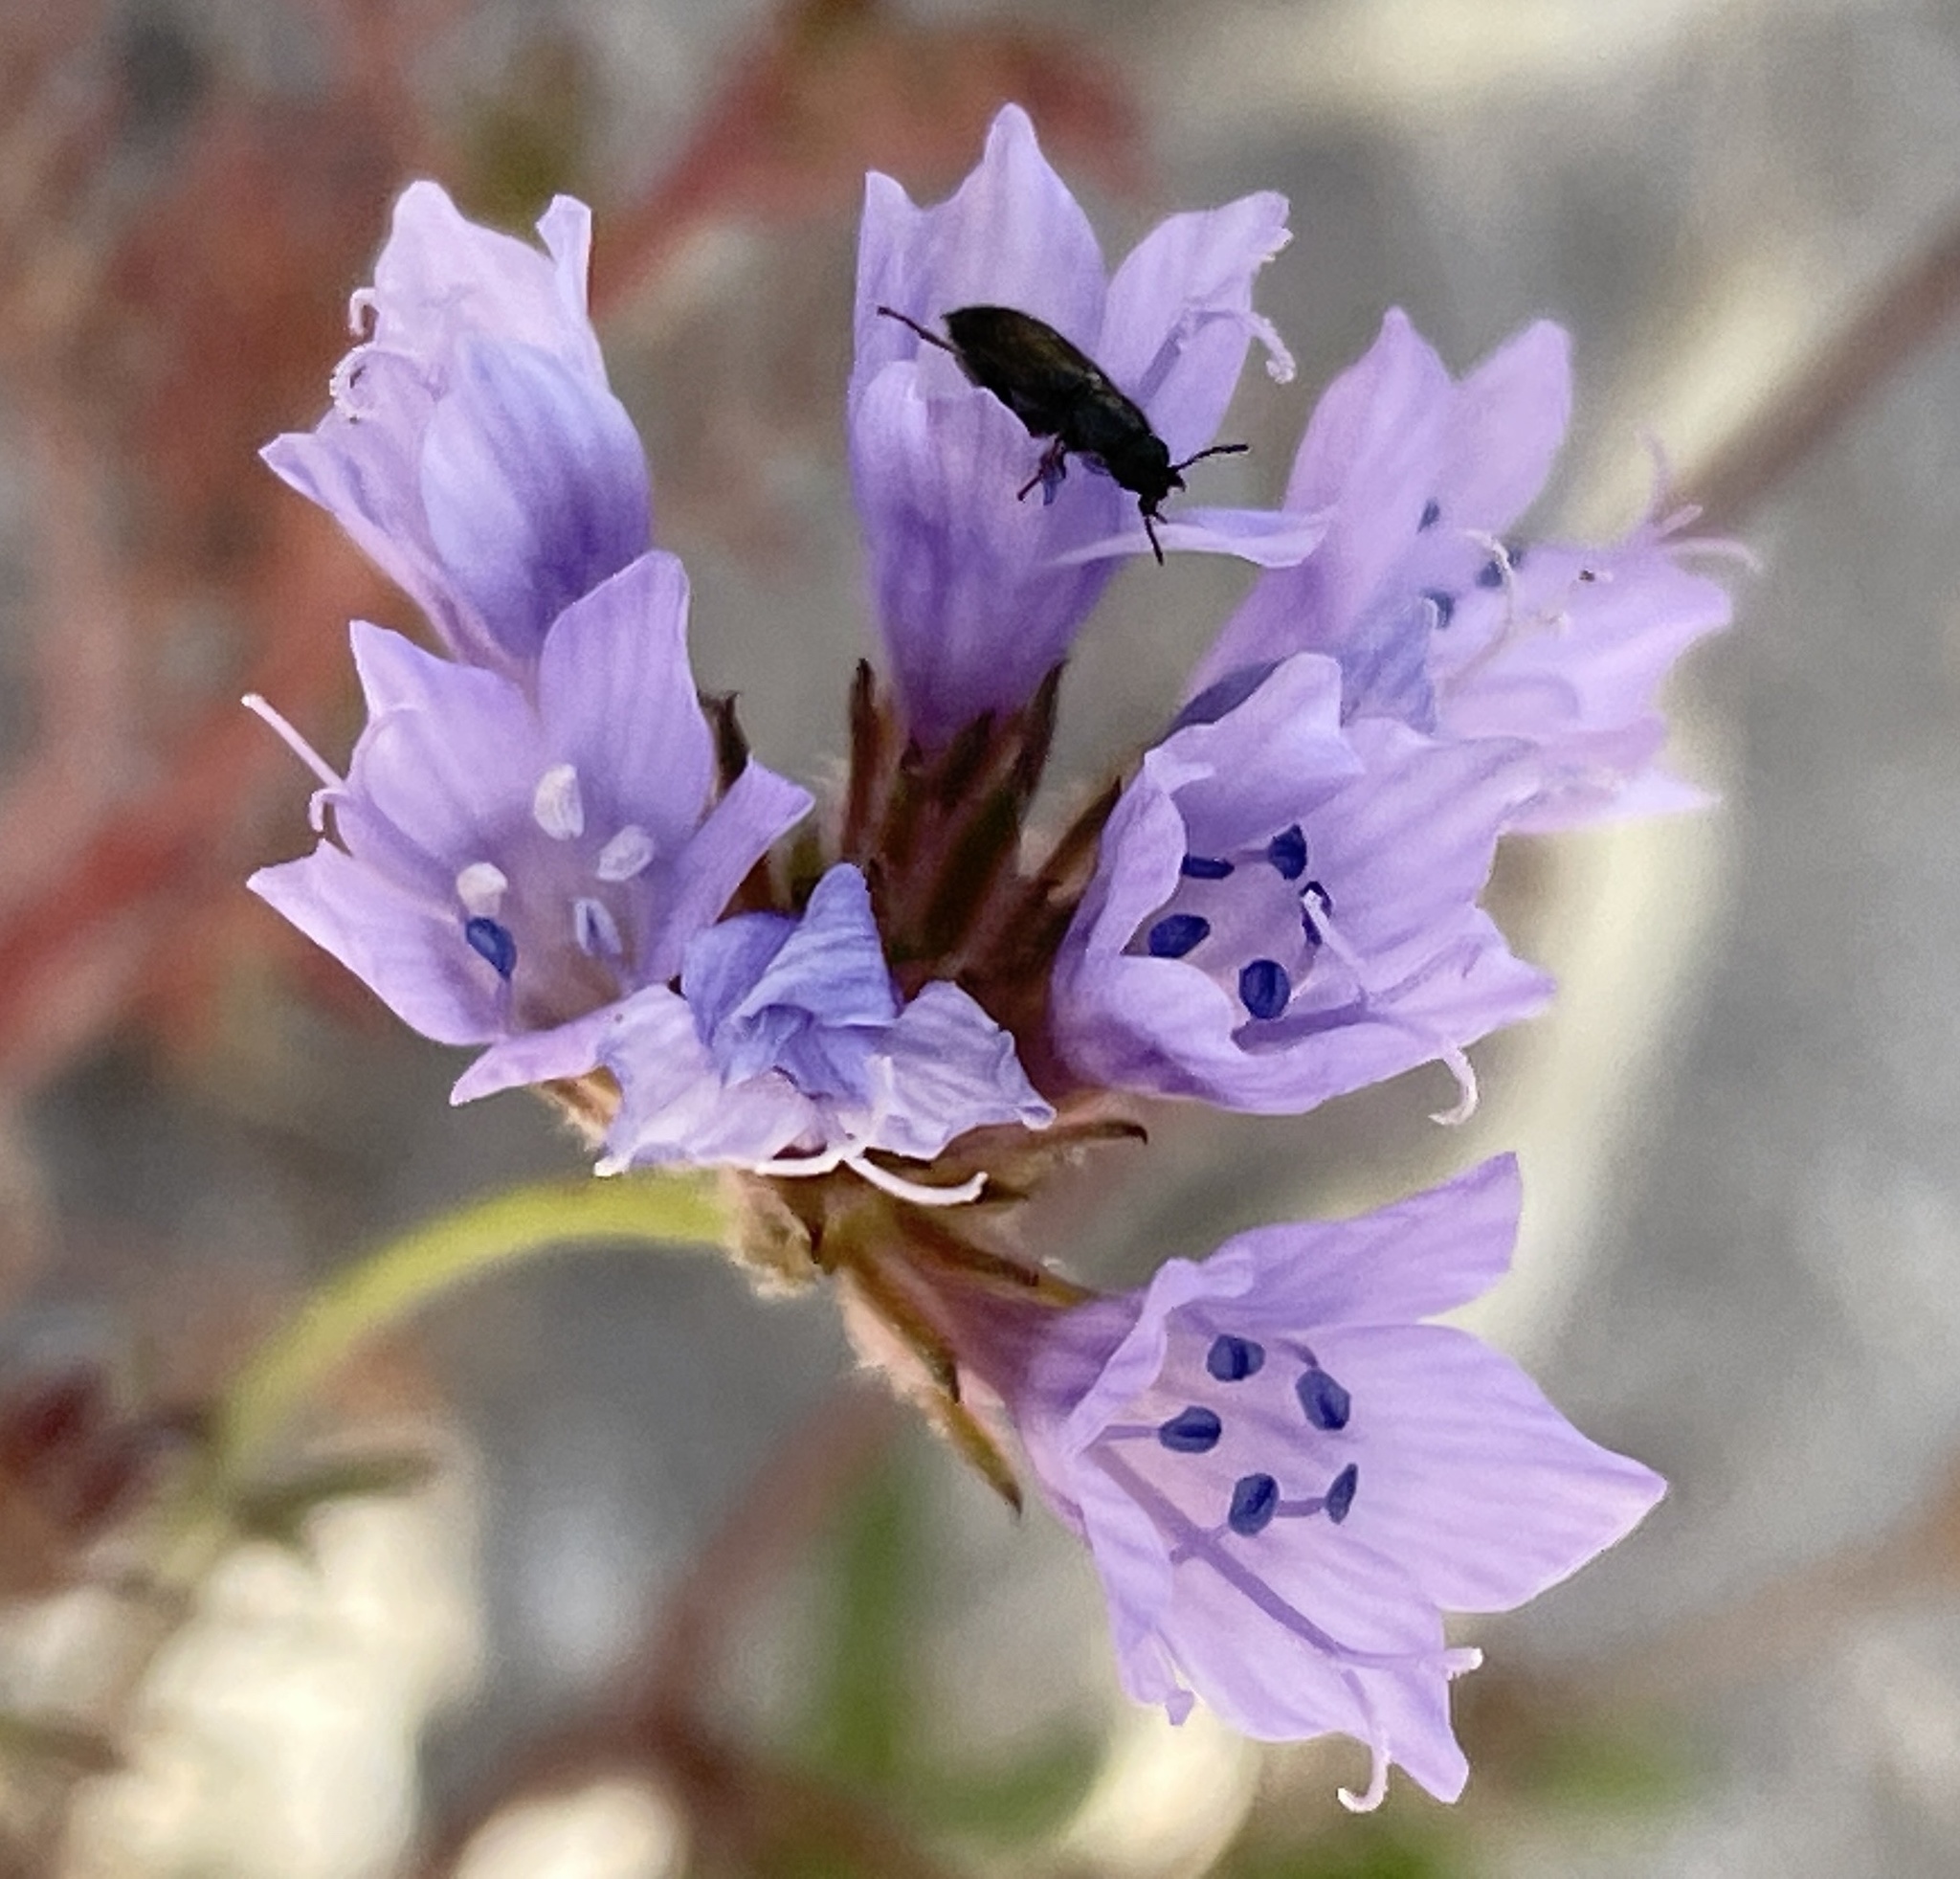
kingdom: Plantae
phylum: Tracheophyta
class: Magnoliopsida
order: Ericales
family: Polemoniaceae
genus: Gilia
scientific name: Gilia achilleifolia
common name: California gily-flower
